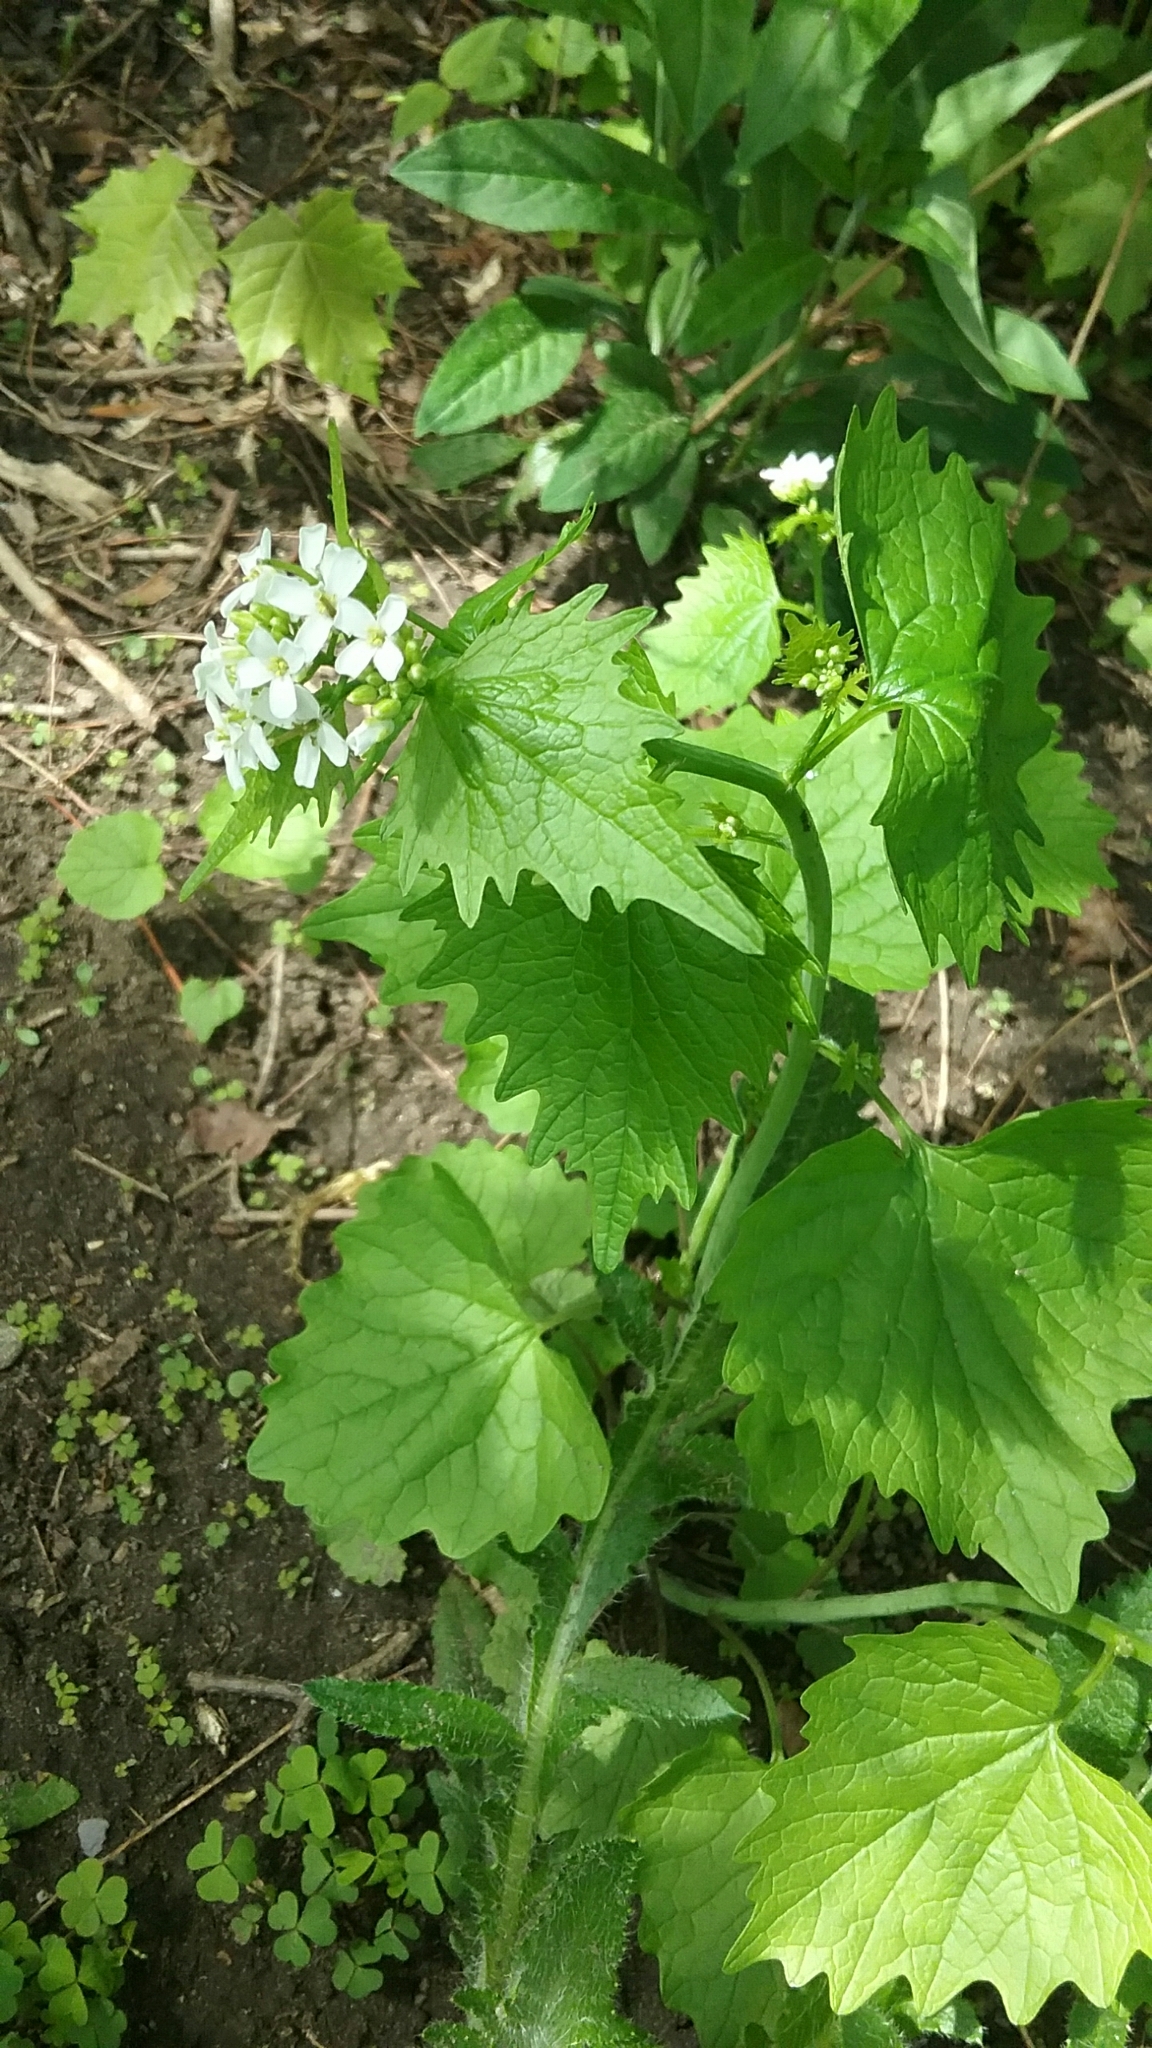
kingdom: Plantae
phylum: Tracheophyta
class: Magnoliopsida
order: Brassicales
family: Brassicaceae
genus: Alliaria
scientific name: Alliaria petiolata
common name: Garlic mustard
